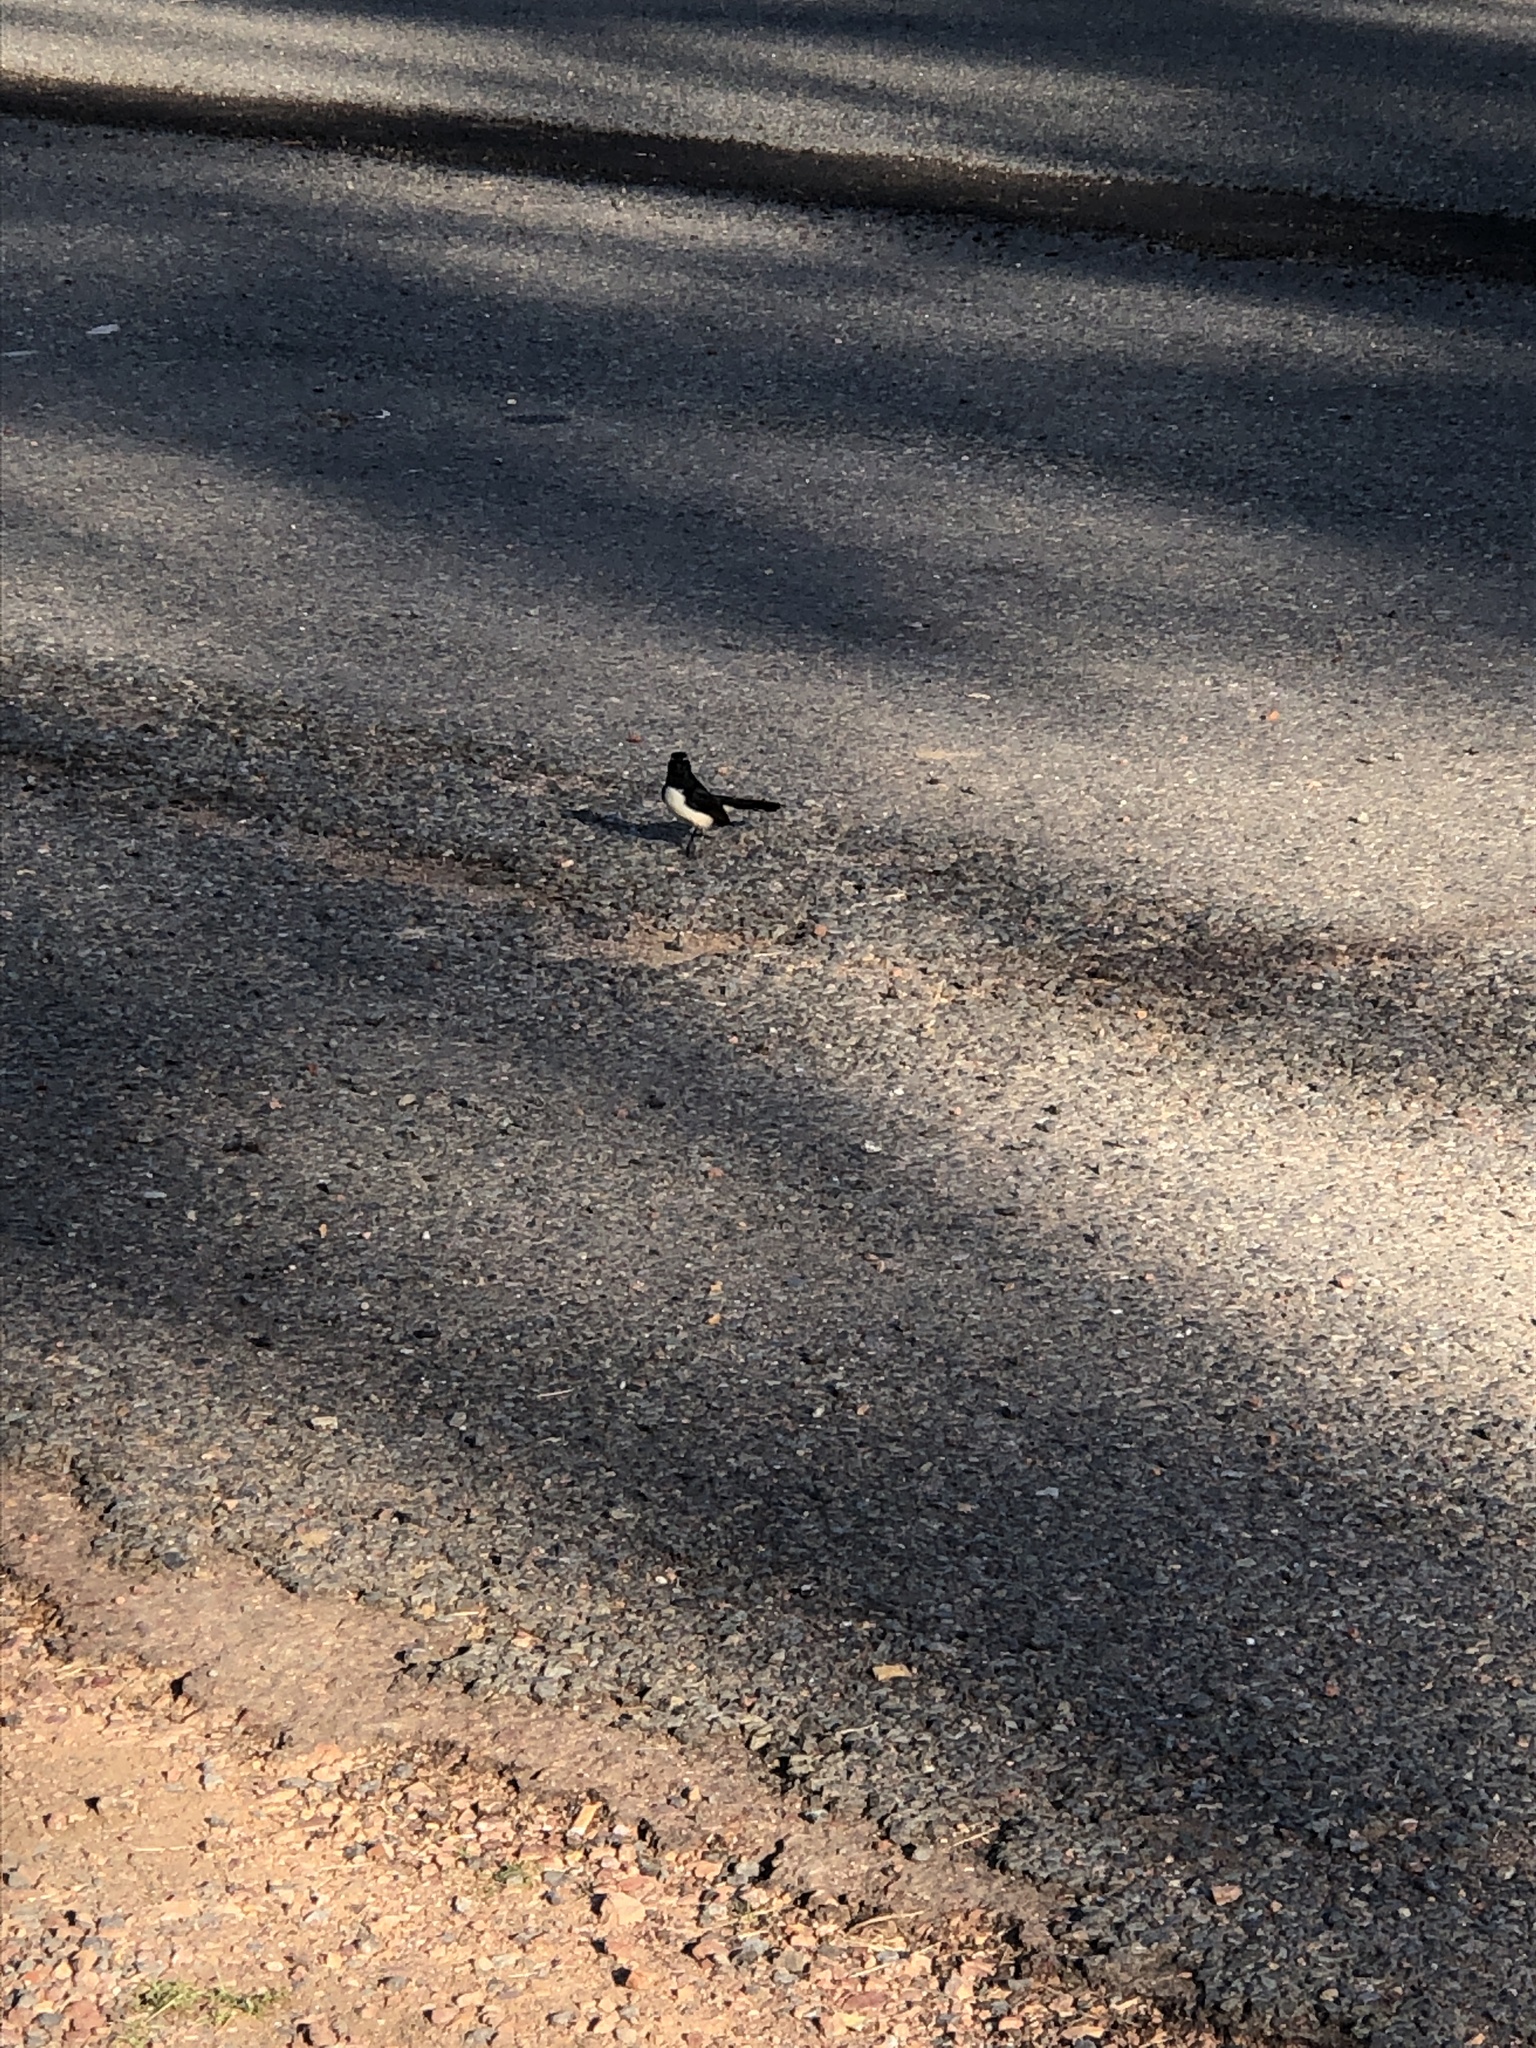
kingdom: Animalia
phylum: Chordata
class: Aves
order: Passeriformes
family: Rhipiduridae
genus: Rhipidura
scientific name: Rhipidura leucophrys
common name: Willie wagtail
